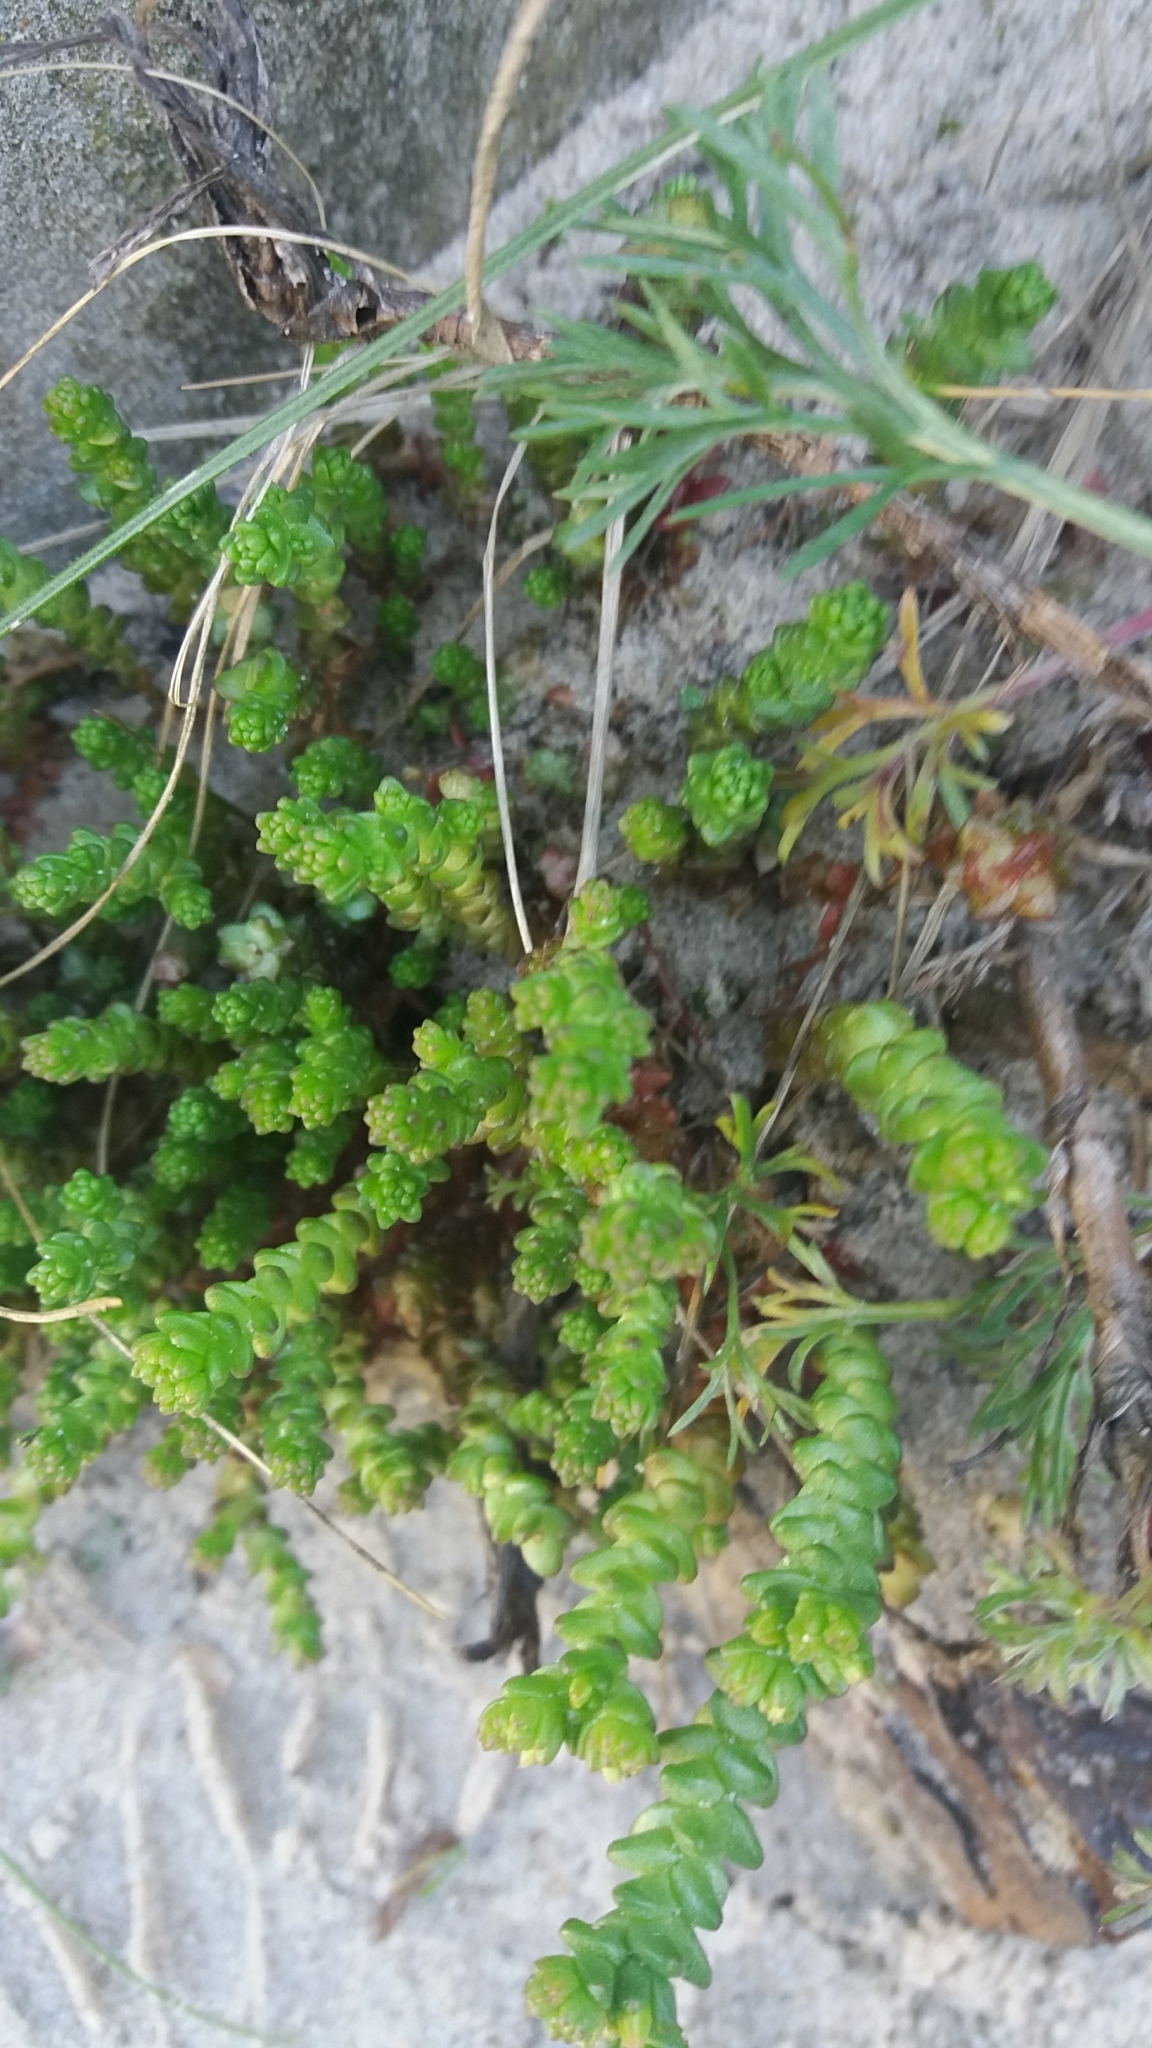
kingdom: Plantae
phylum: Tracheophyta
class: Magnoliopsida
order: Saxifragales
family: Crassulaceae
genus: Sedum
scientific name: Sedum acre
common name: Biting stonecrop
